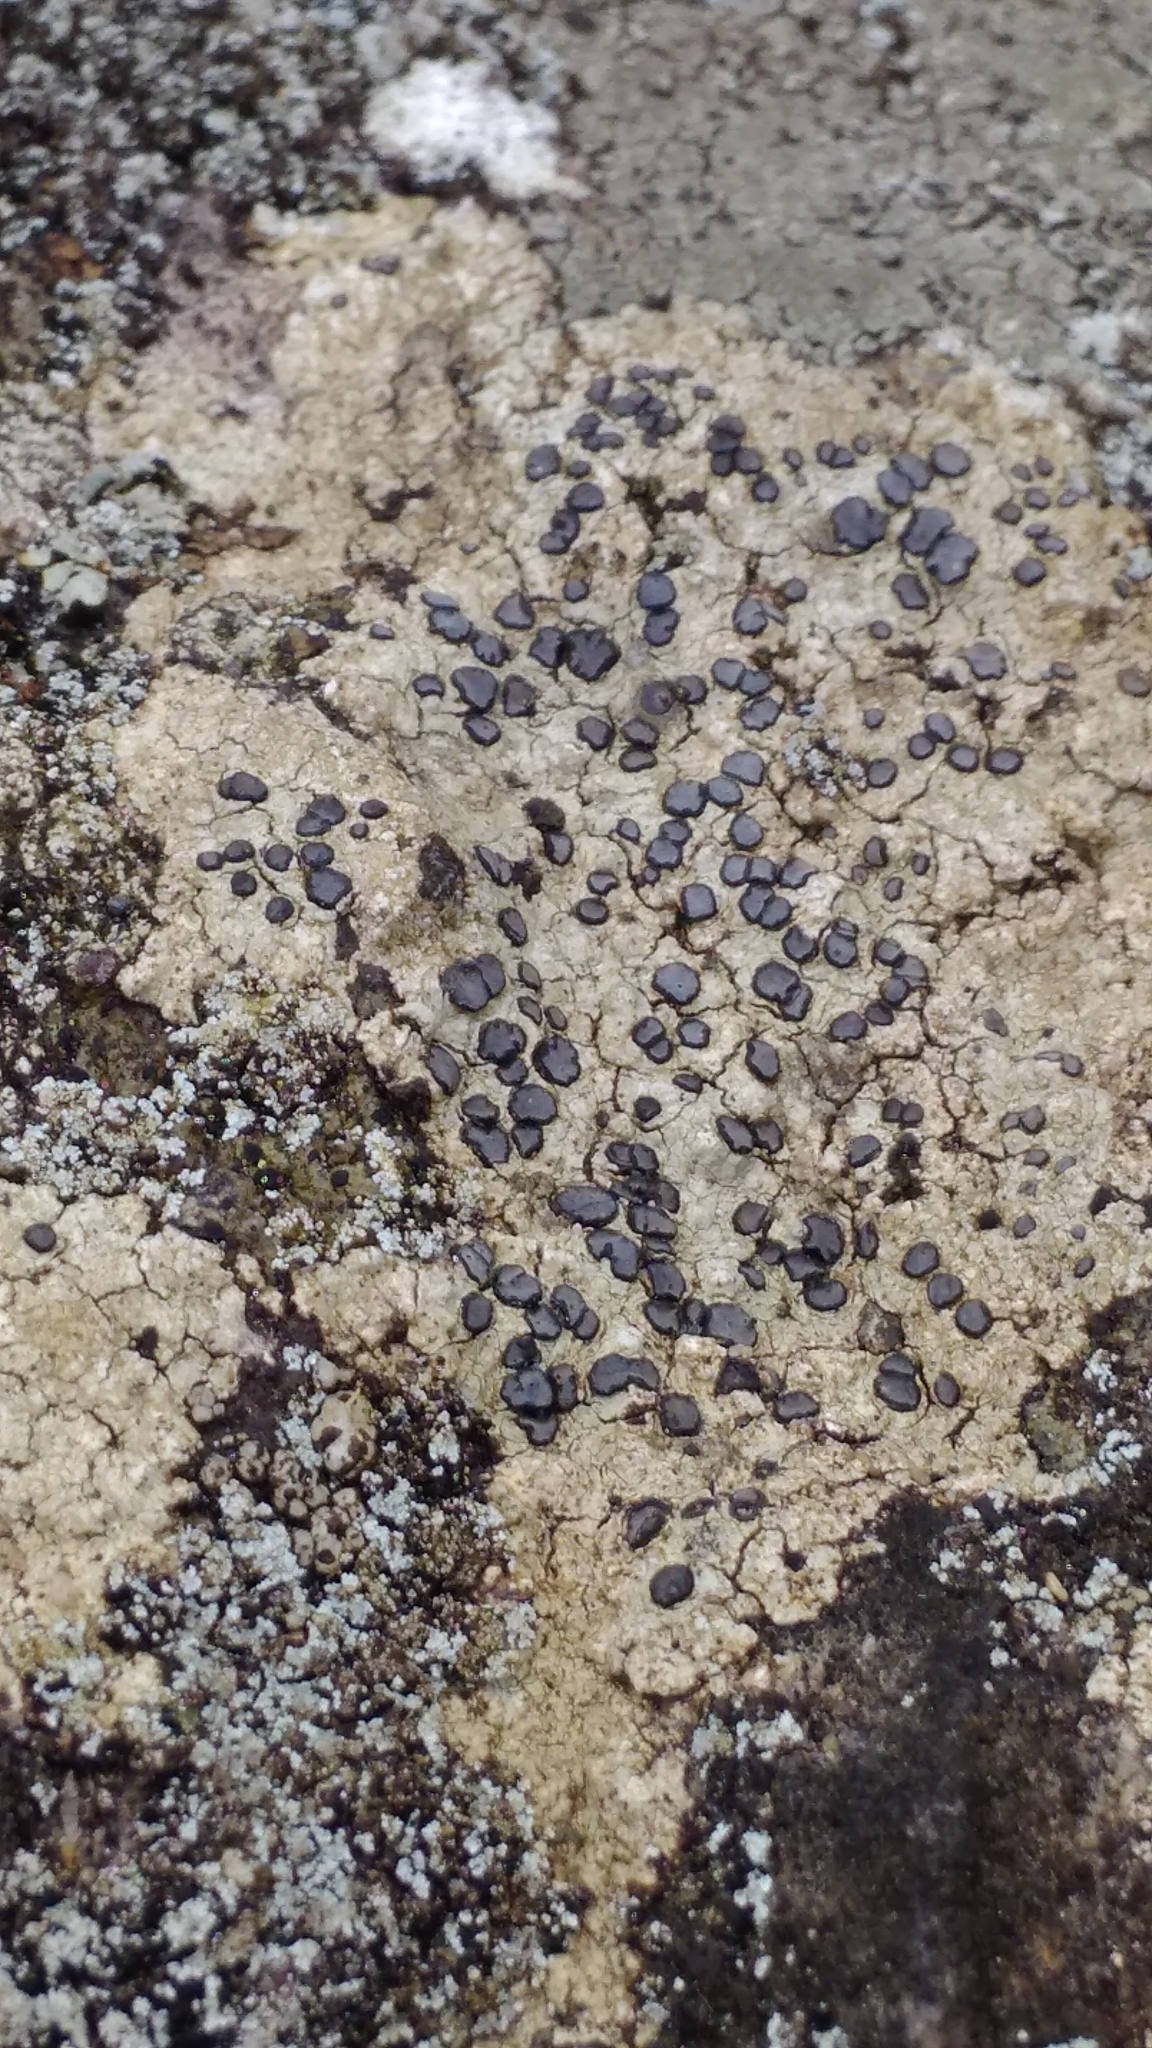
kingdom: Fungi
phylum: Ascomycota
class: Lecanoromycetes
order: Lecideales
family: Lecideaceae
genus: Porpidia
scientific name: Porpidia albocaerulescens
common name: Smokey-eyed boulder lichen
